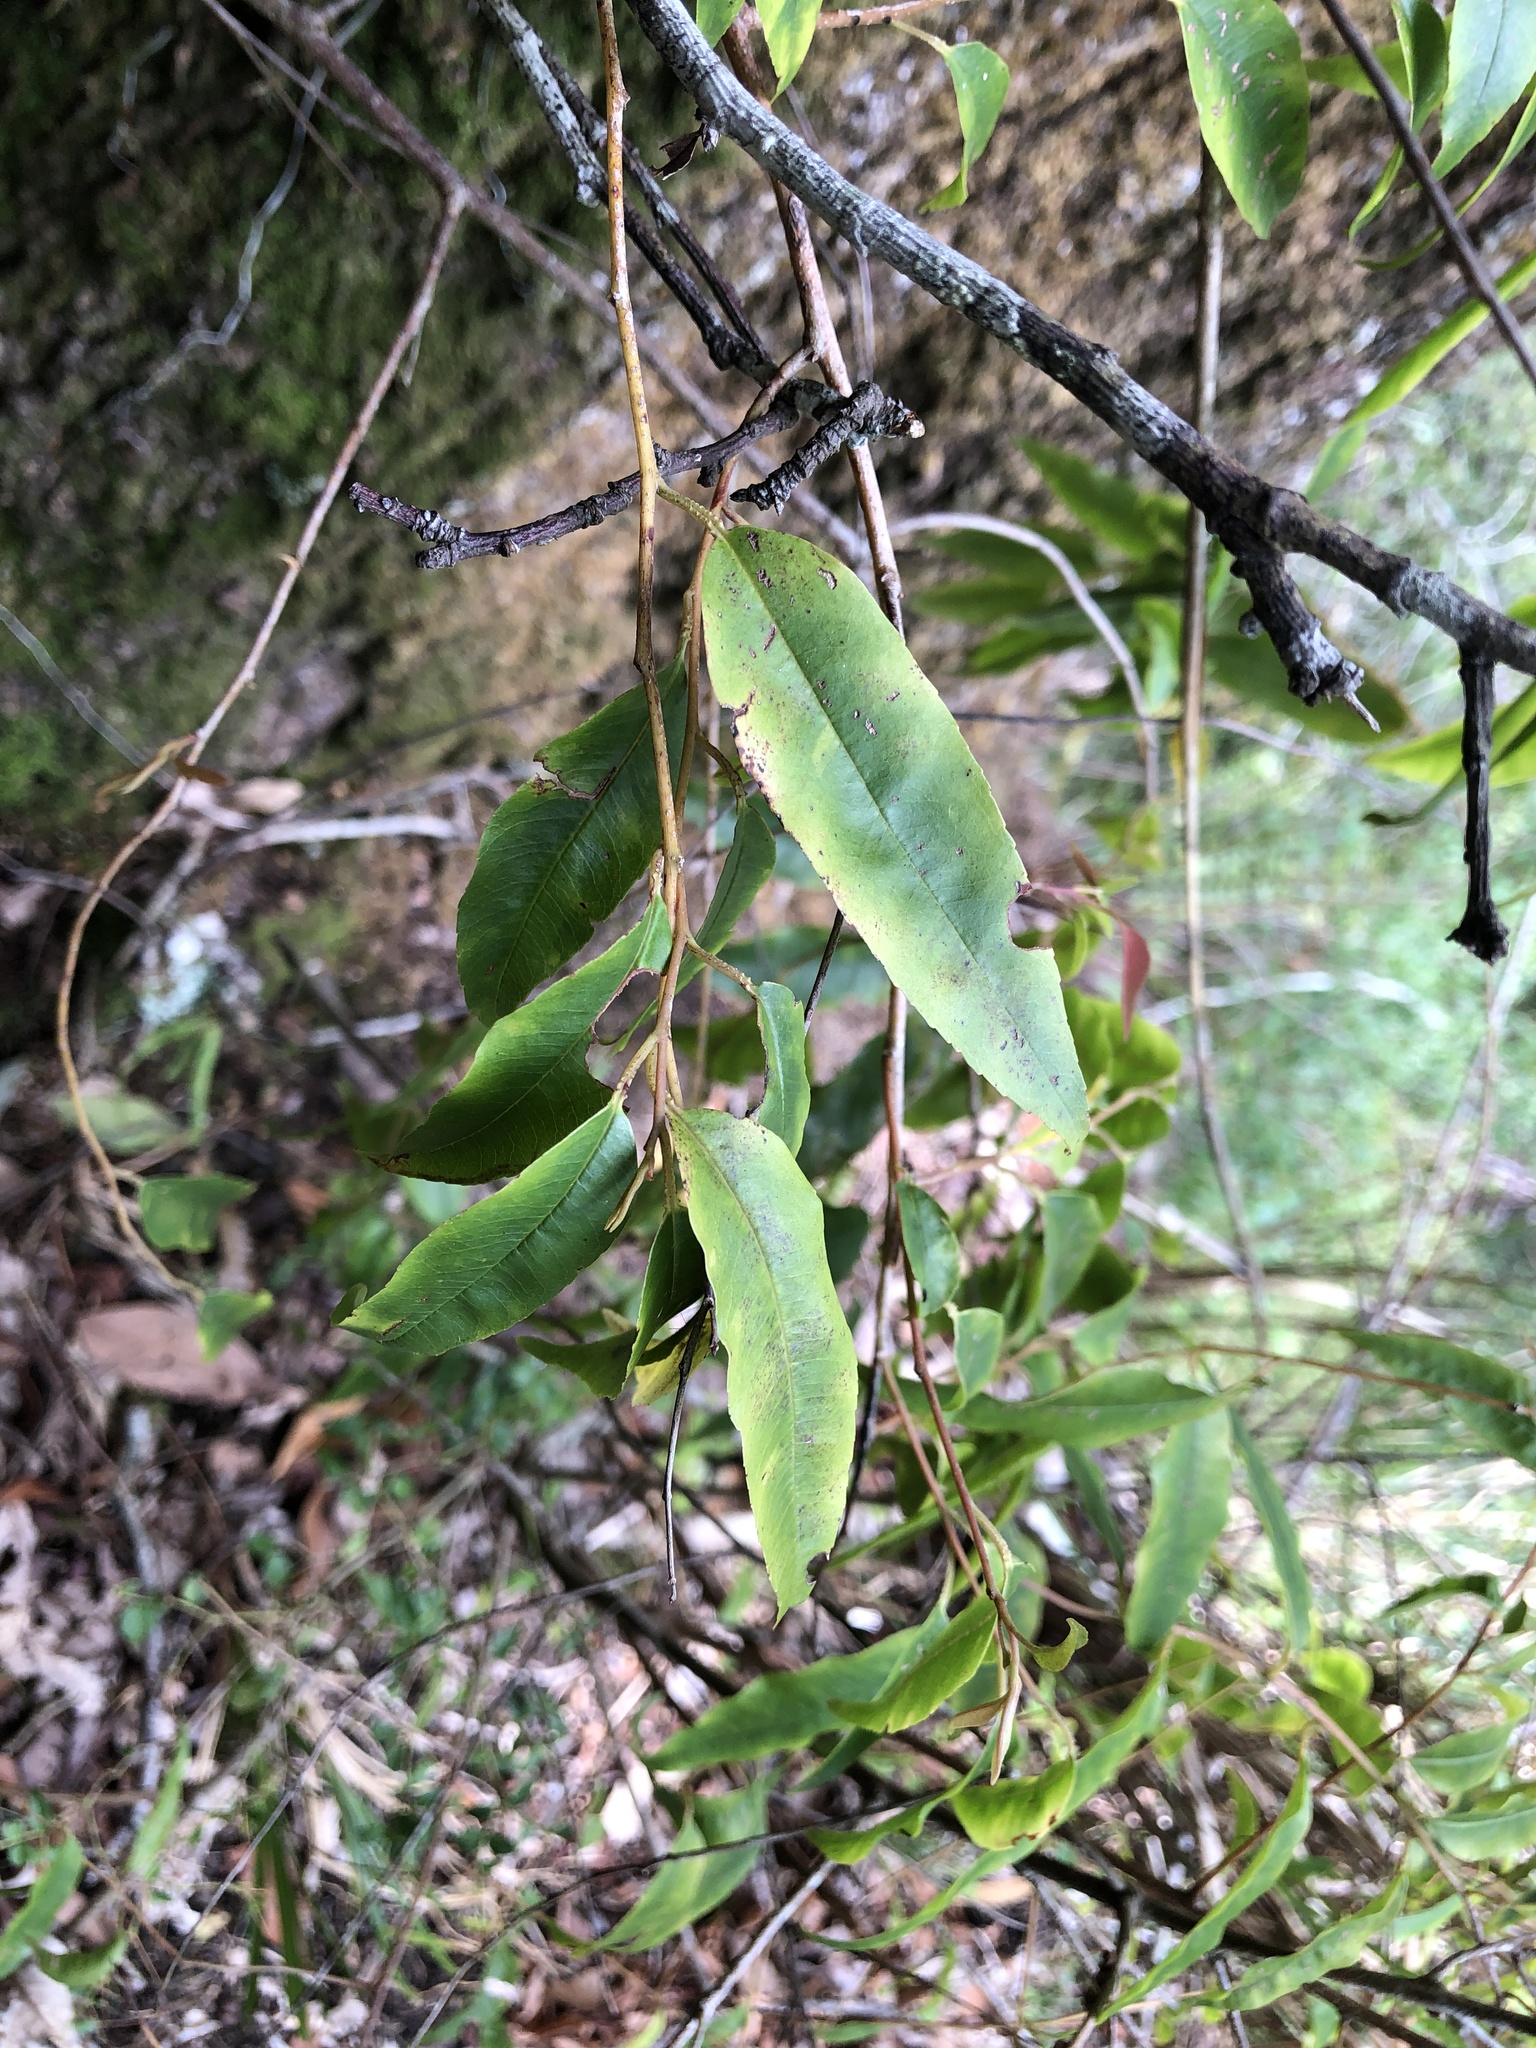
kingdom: Plantae
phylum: Tracheophyta
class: Magnoliopsida
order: Ericales
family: Primulaceae
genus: Embelia
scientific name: Embelia vestita
